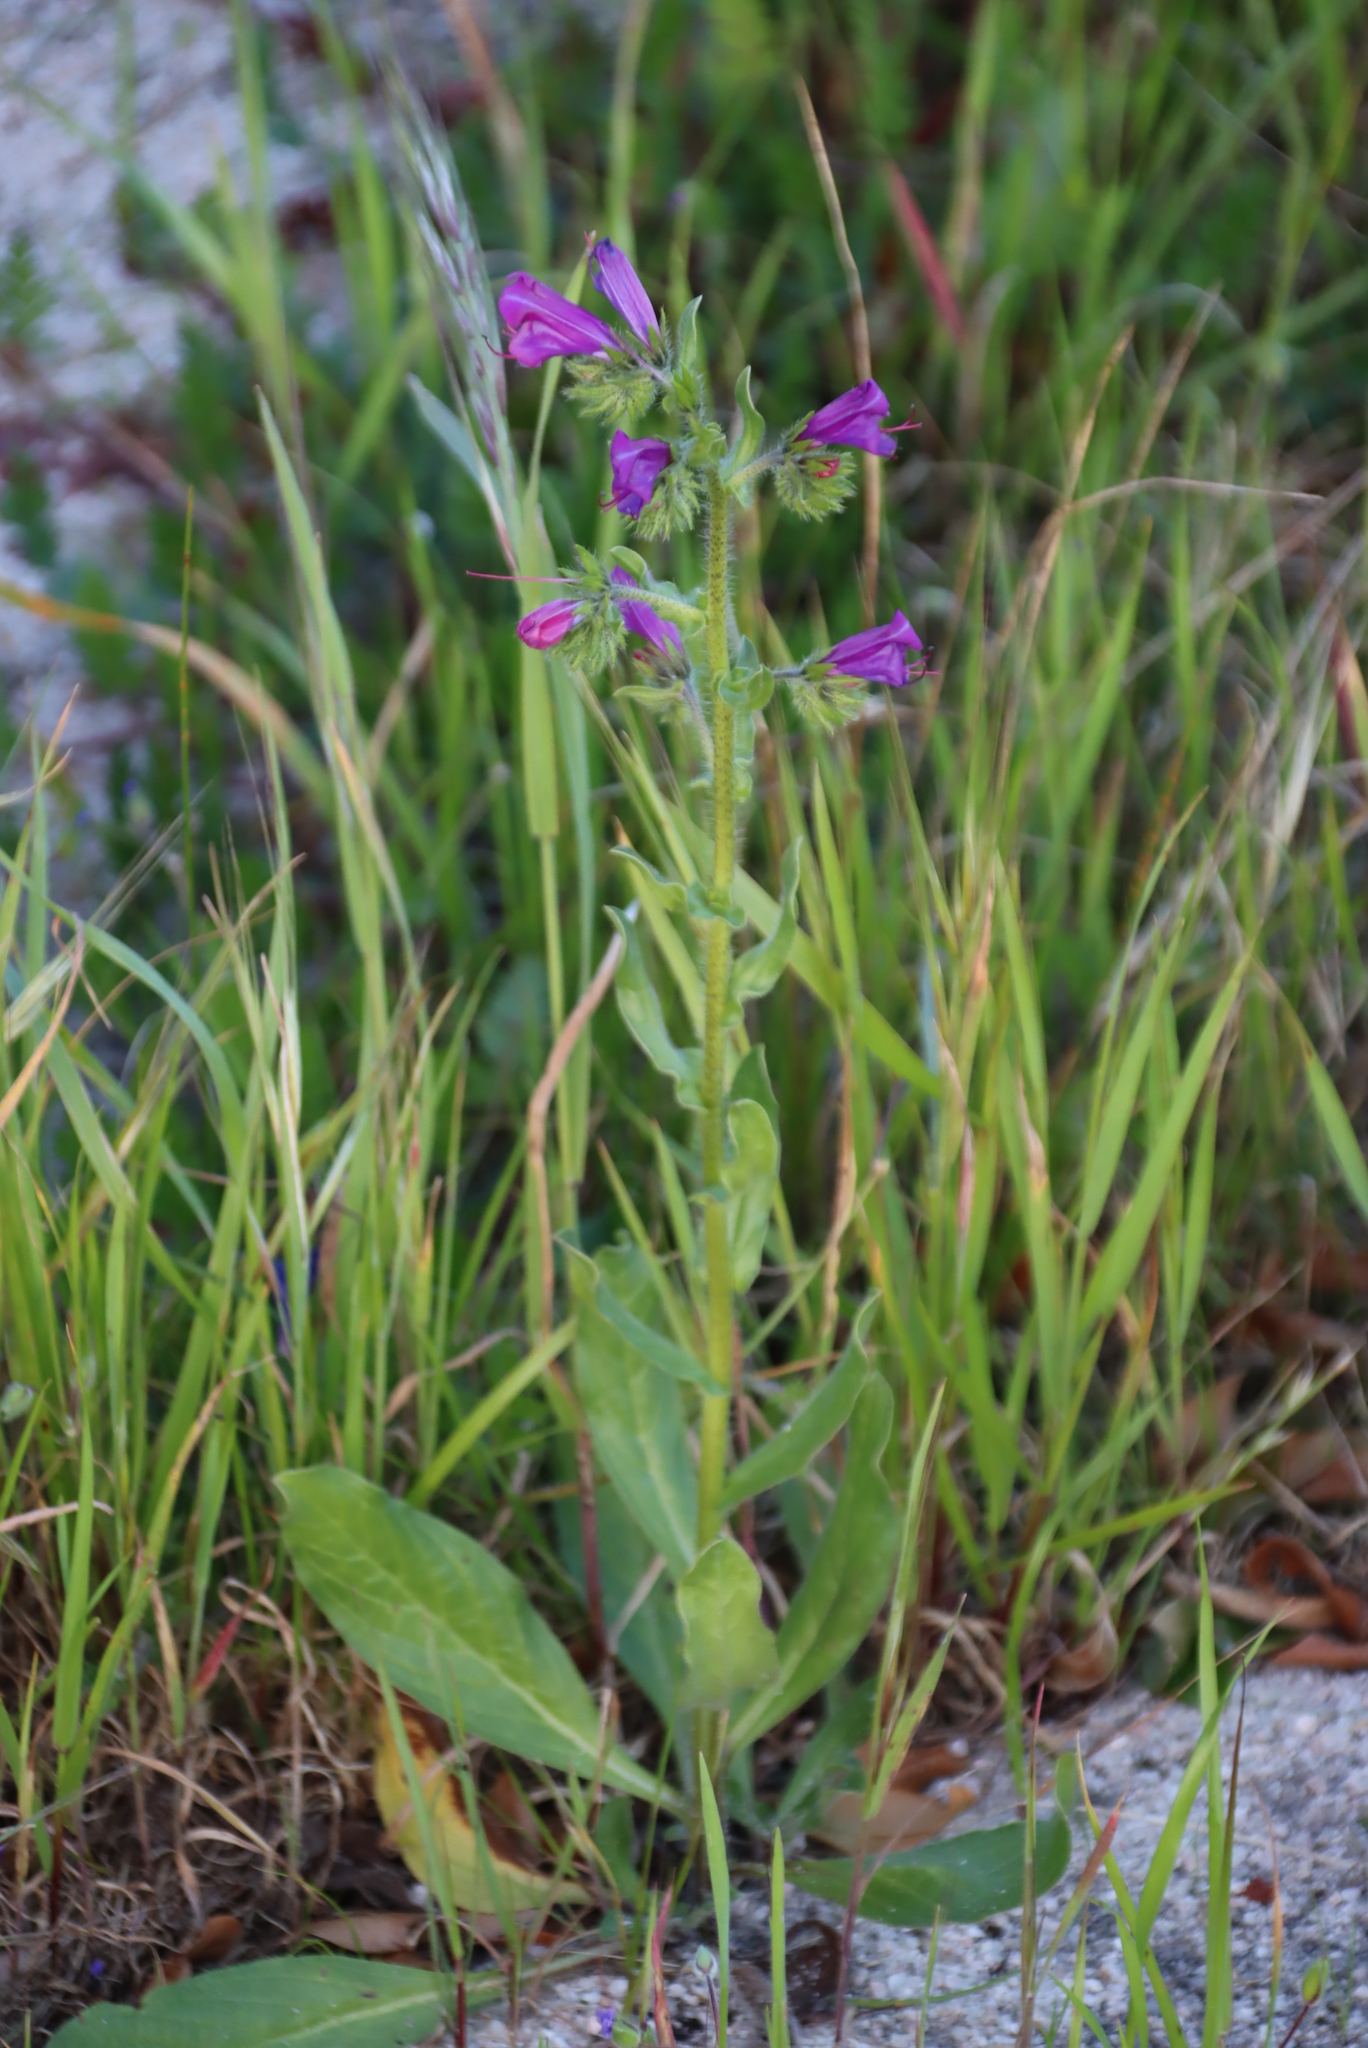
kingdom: Plantae
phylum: Tracheophyta
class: Magnoliopsida
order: Boraginales
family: Boraginaceae
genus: Echium
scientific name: Echium plantagineum
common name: Purple viper's-bugloss
